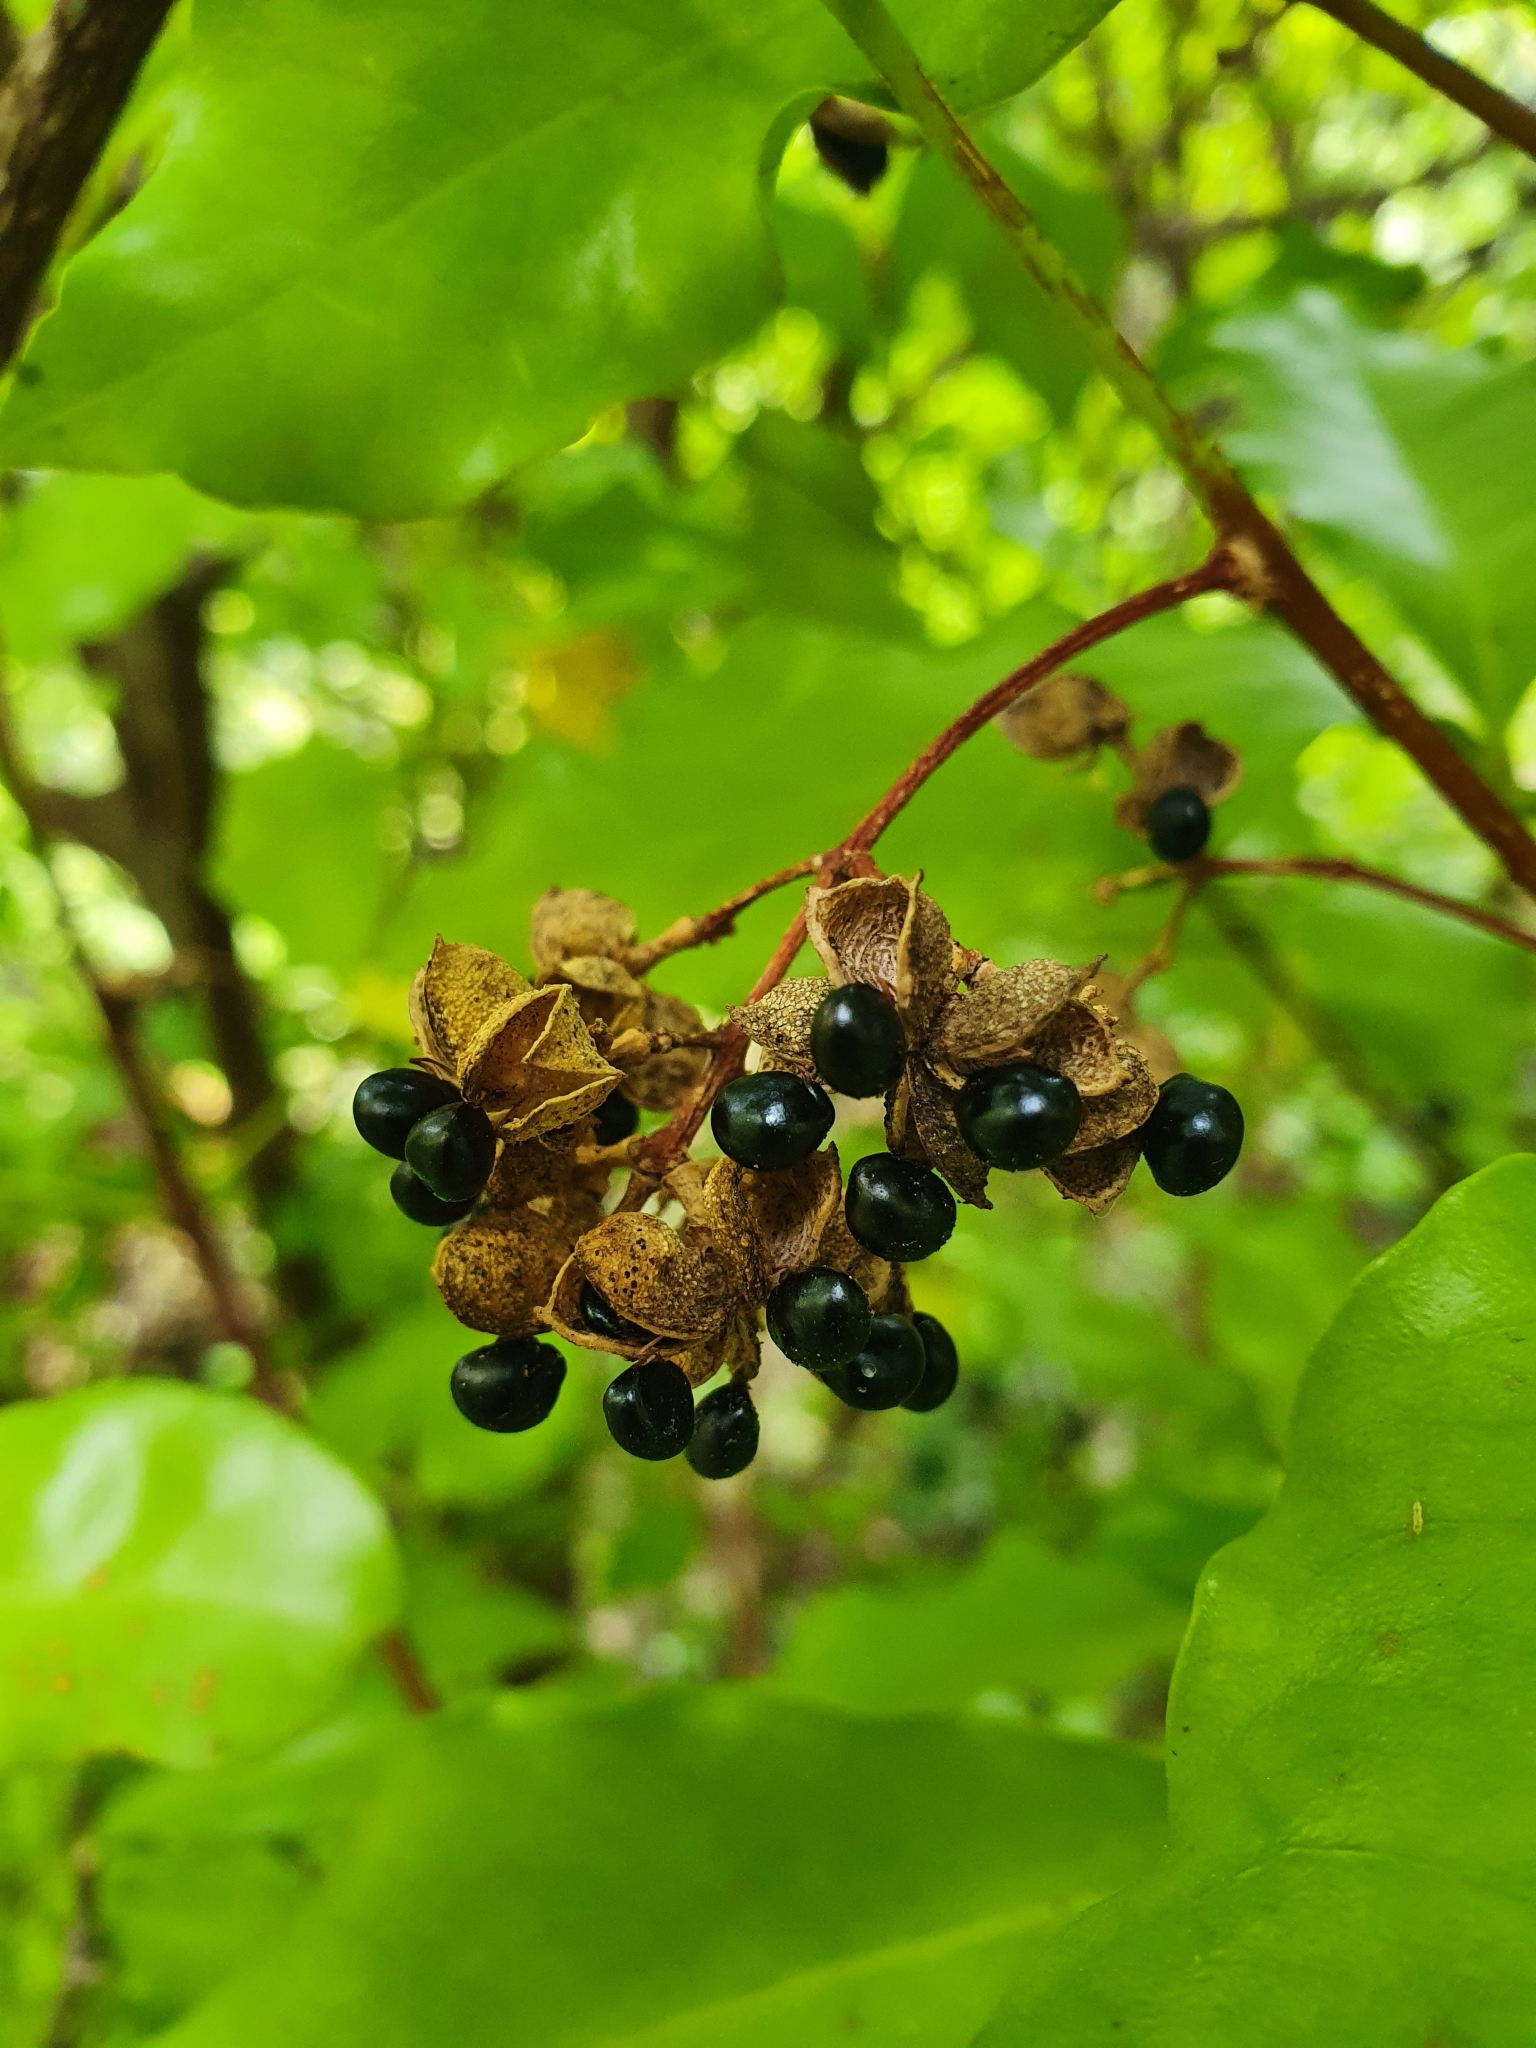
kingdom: Plantae
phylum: Tracheophyta
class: Magnoliopsida
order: Sapindales
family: Rutaceae
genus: Melicope
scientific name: Melicope ternata
